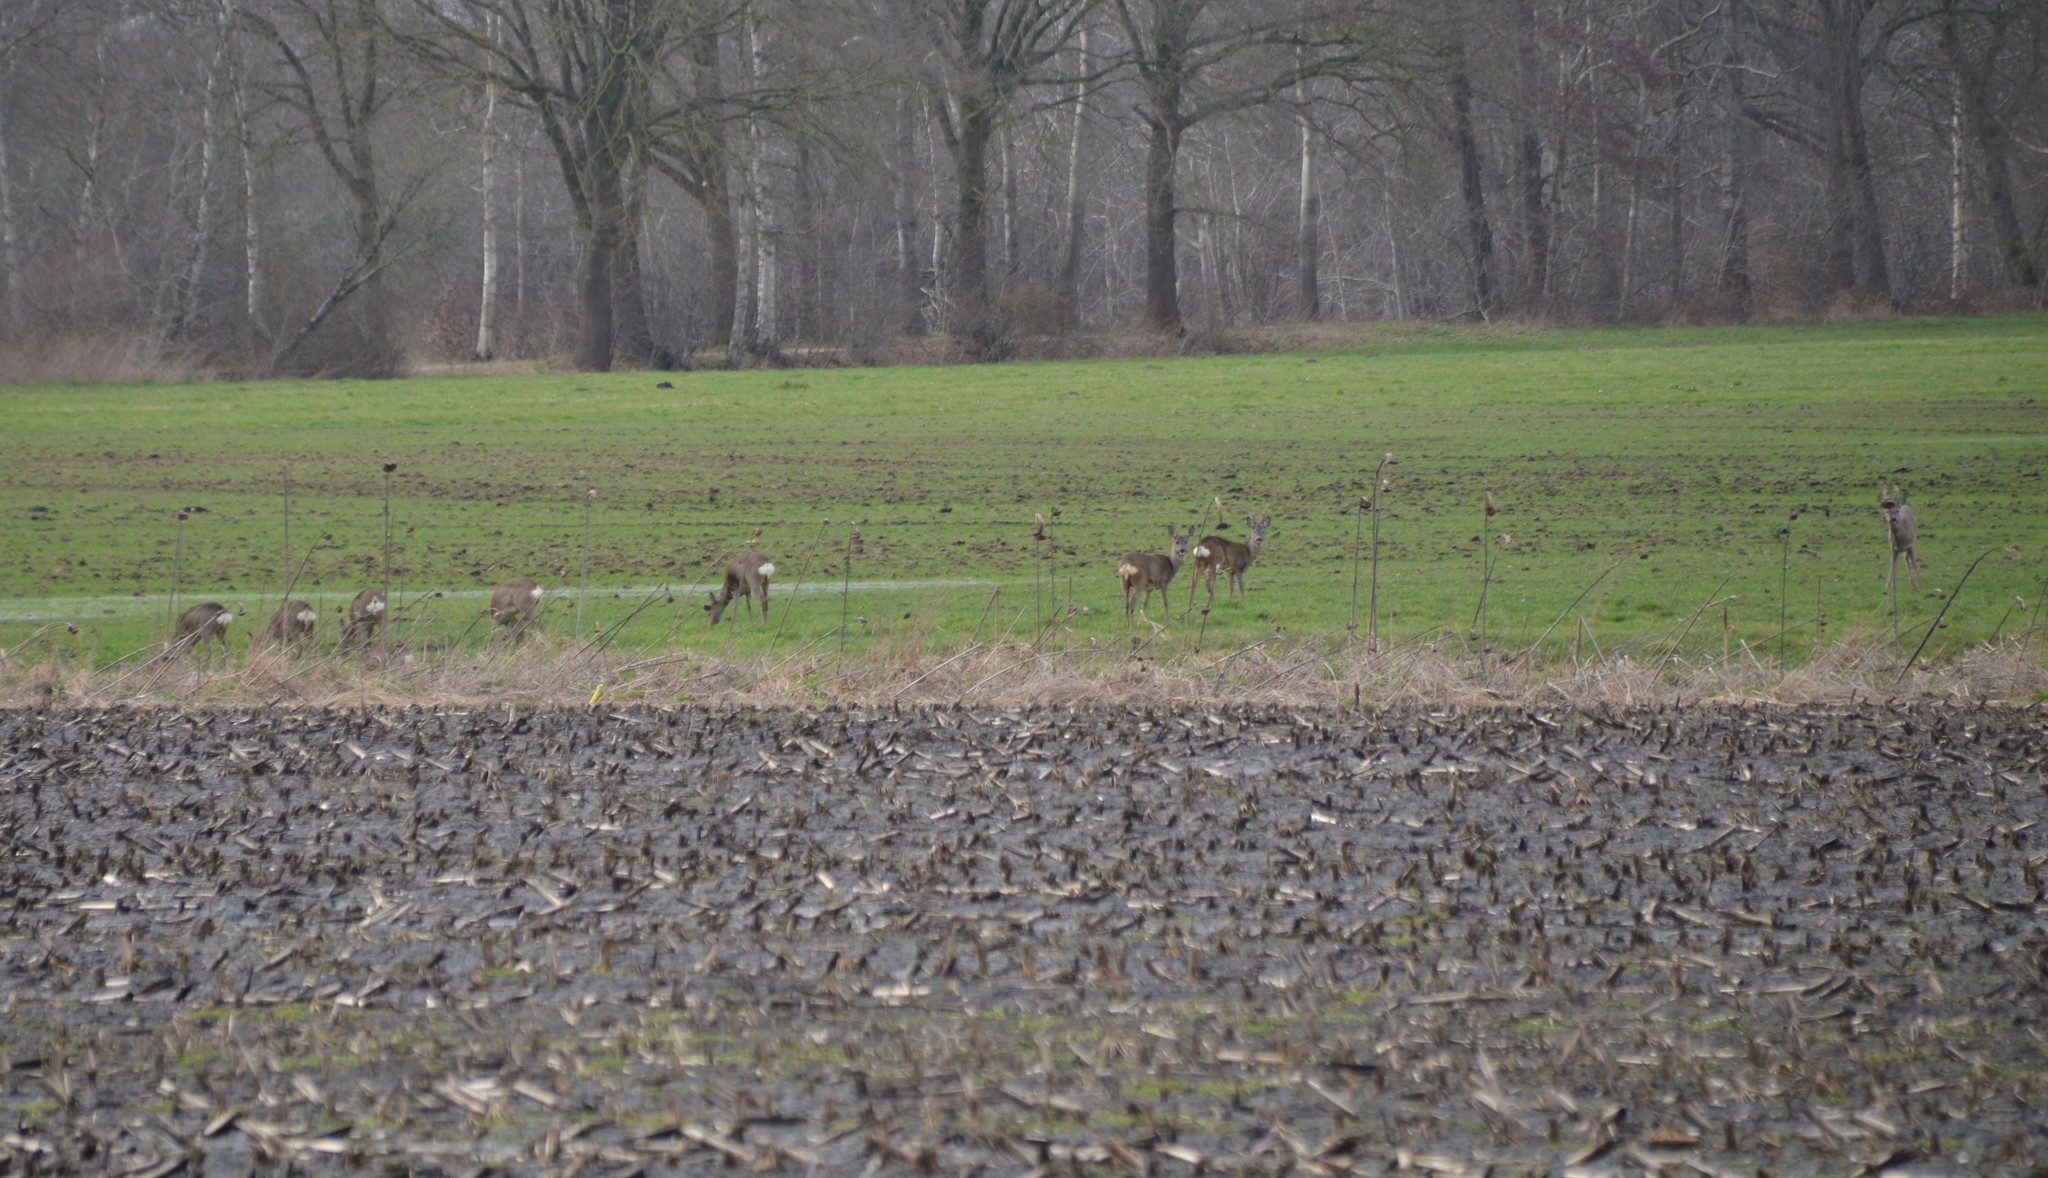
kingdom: Animalia
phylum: Chordata
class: Mammalia
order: Artiodactyla
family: Cervidae
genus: Capreolus
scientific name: Capreolus capreolus
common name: Western roe deer
